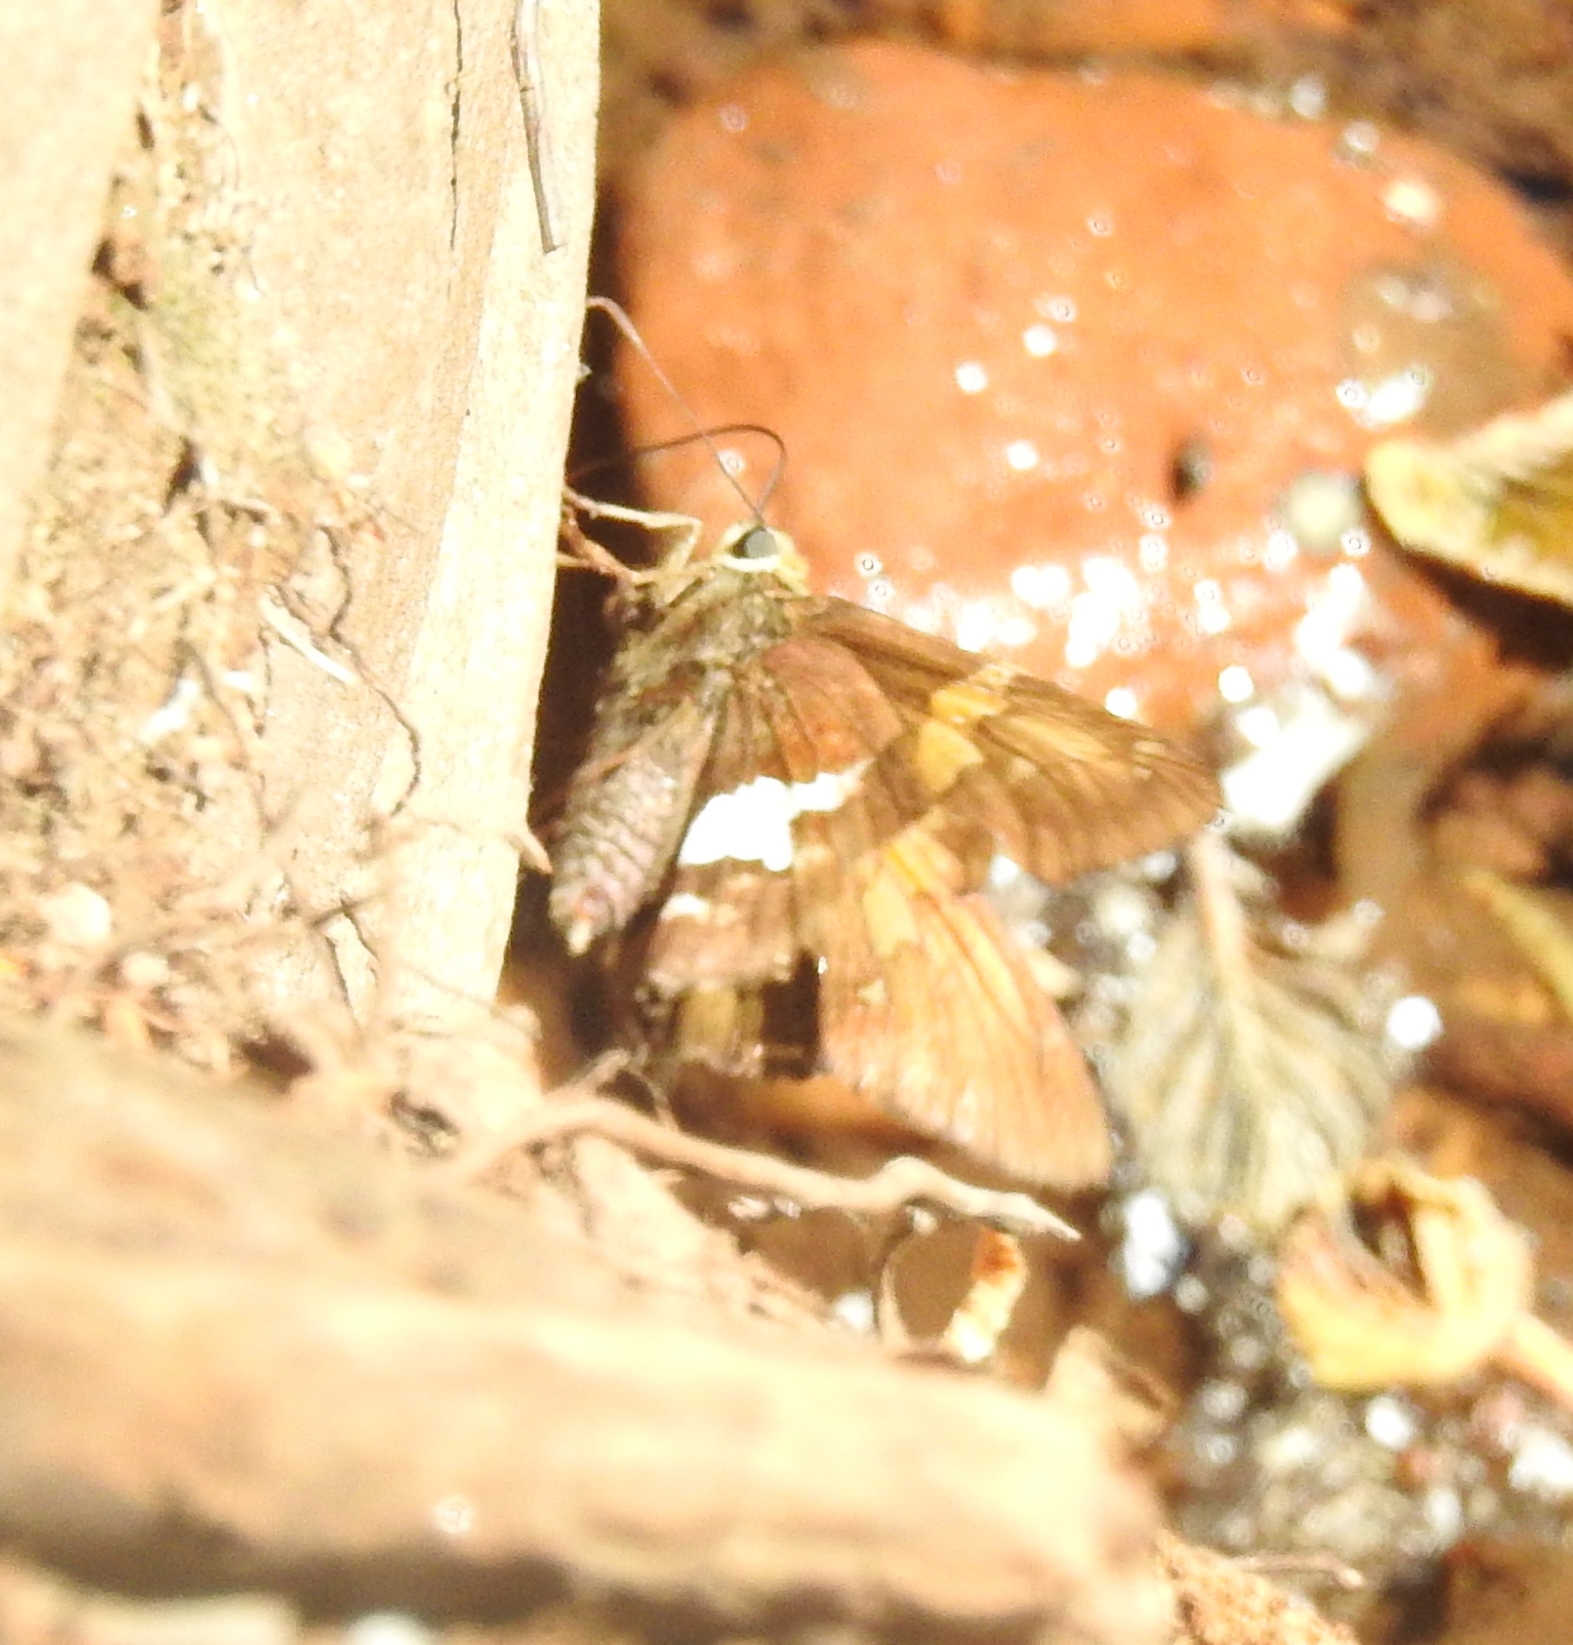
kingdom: Animalia
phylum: Arthropoda
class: Insecta
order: Lepidoptera
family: Hesperiidae
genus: Epargyreus
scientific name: Epargyreus clarus
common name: Silver-spotted skipper
